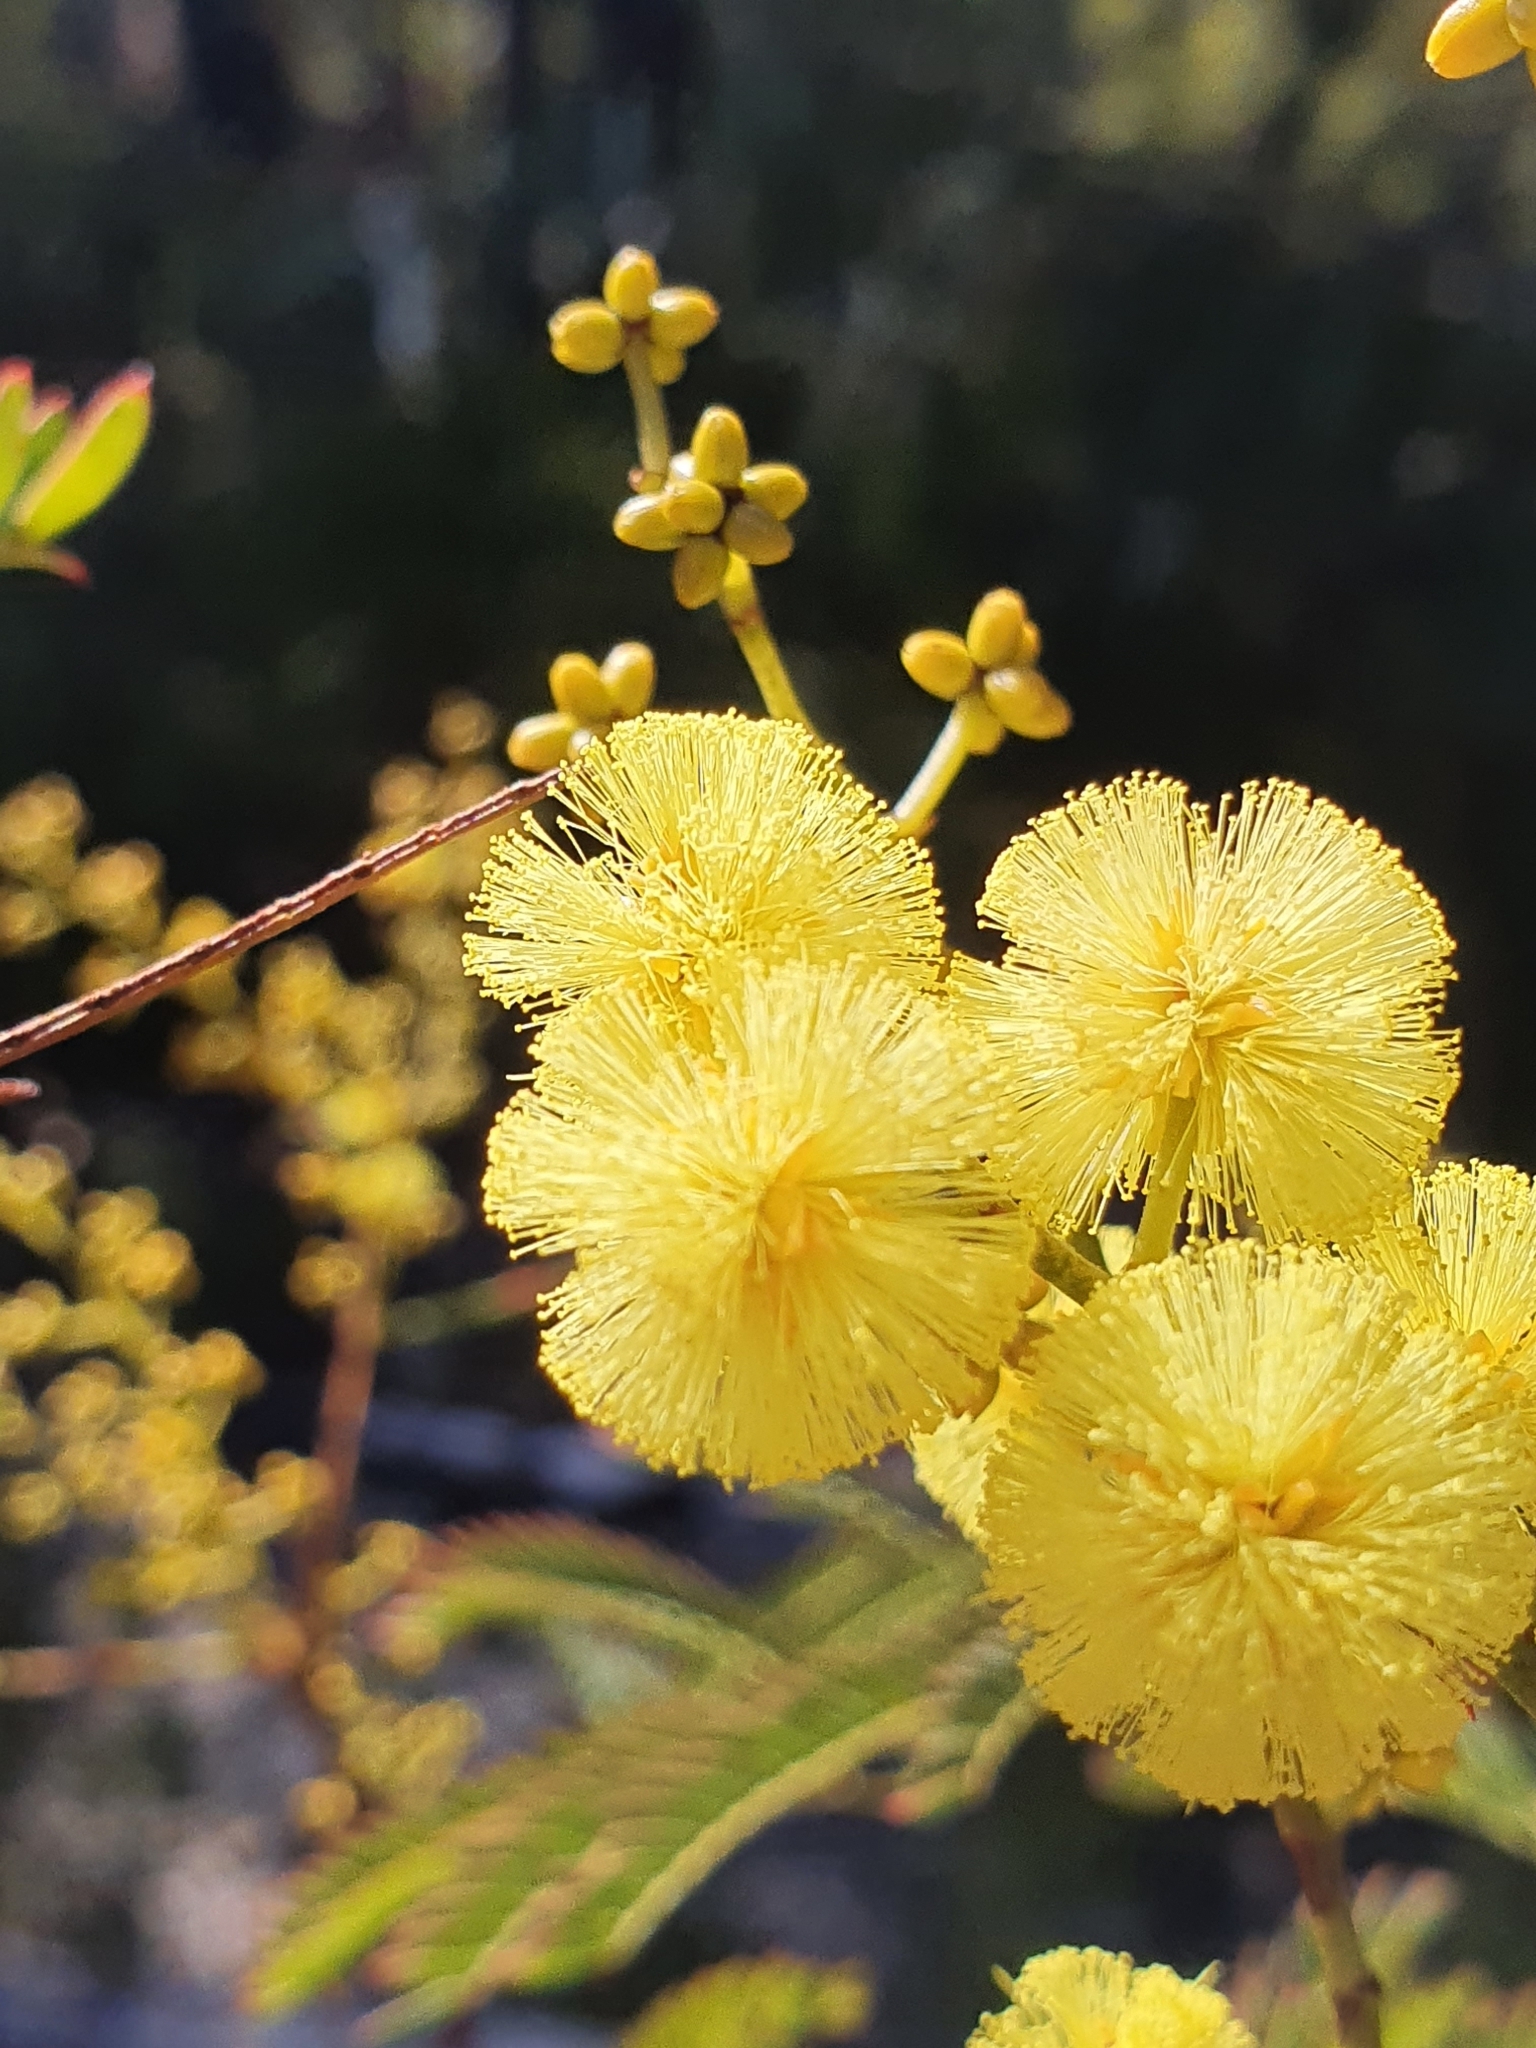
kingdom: Plantae
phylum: Tracheophyta
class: Magnoliopsida
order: Fabales
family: Fabaceae
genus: Acacia
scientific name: Acacia terminalis
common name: Cedar wattle
